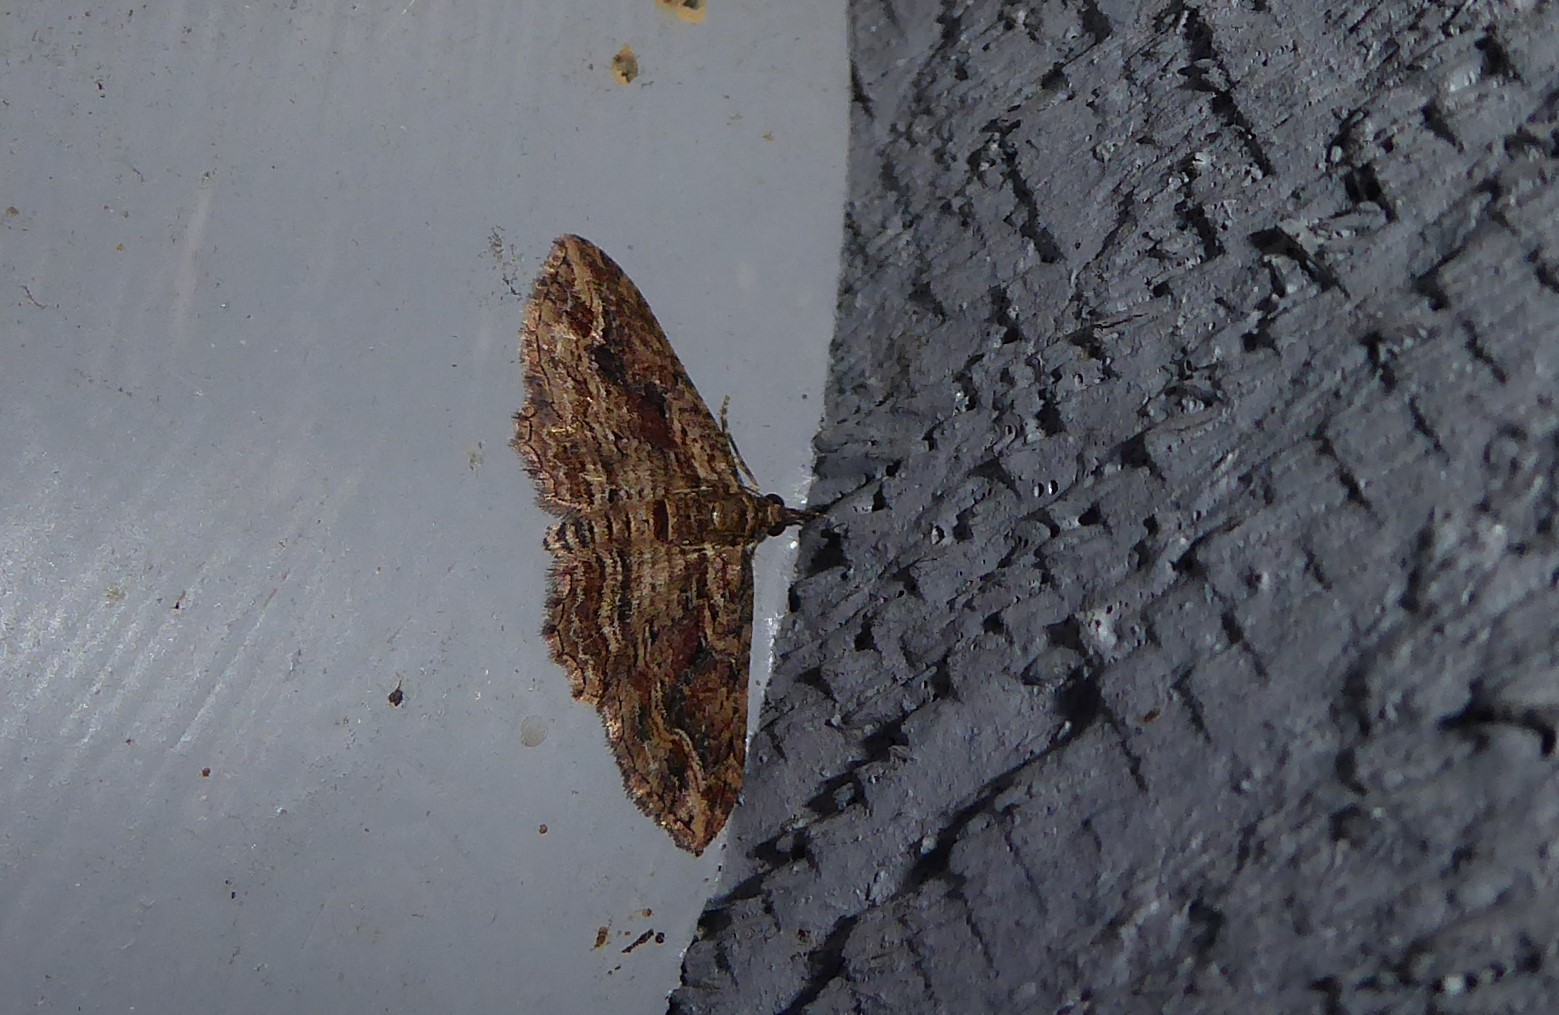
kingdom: Animalia
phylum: Arthropoda
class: Insecta
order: Lepidoptera
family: Geometridae
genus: Chloroclystis
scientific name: Chloroclystis filata
